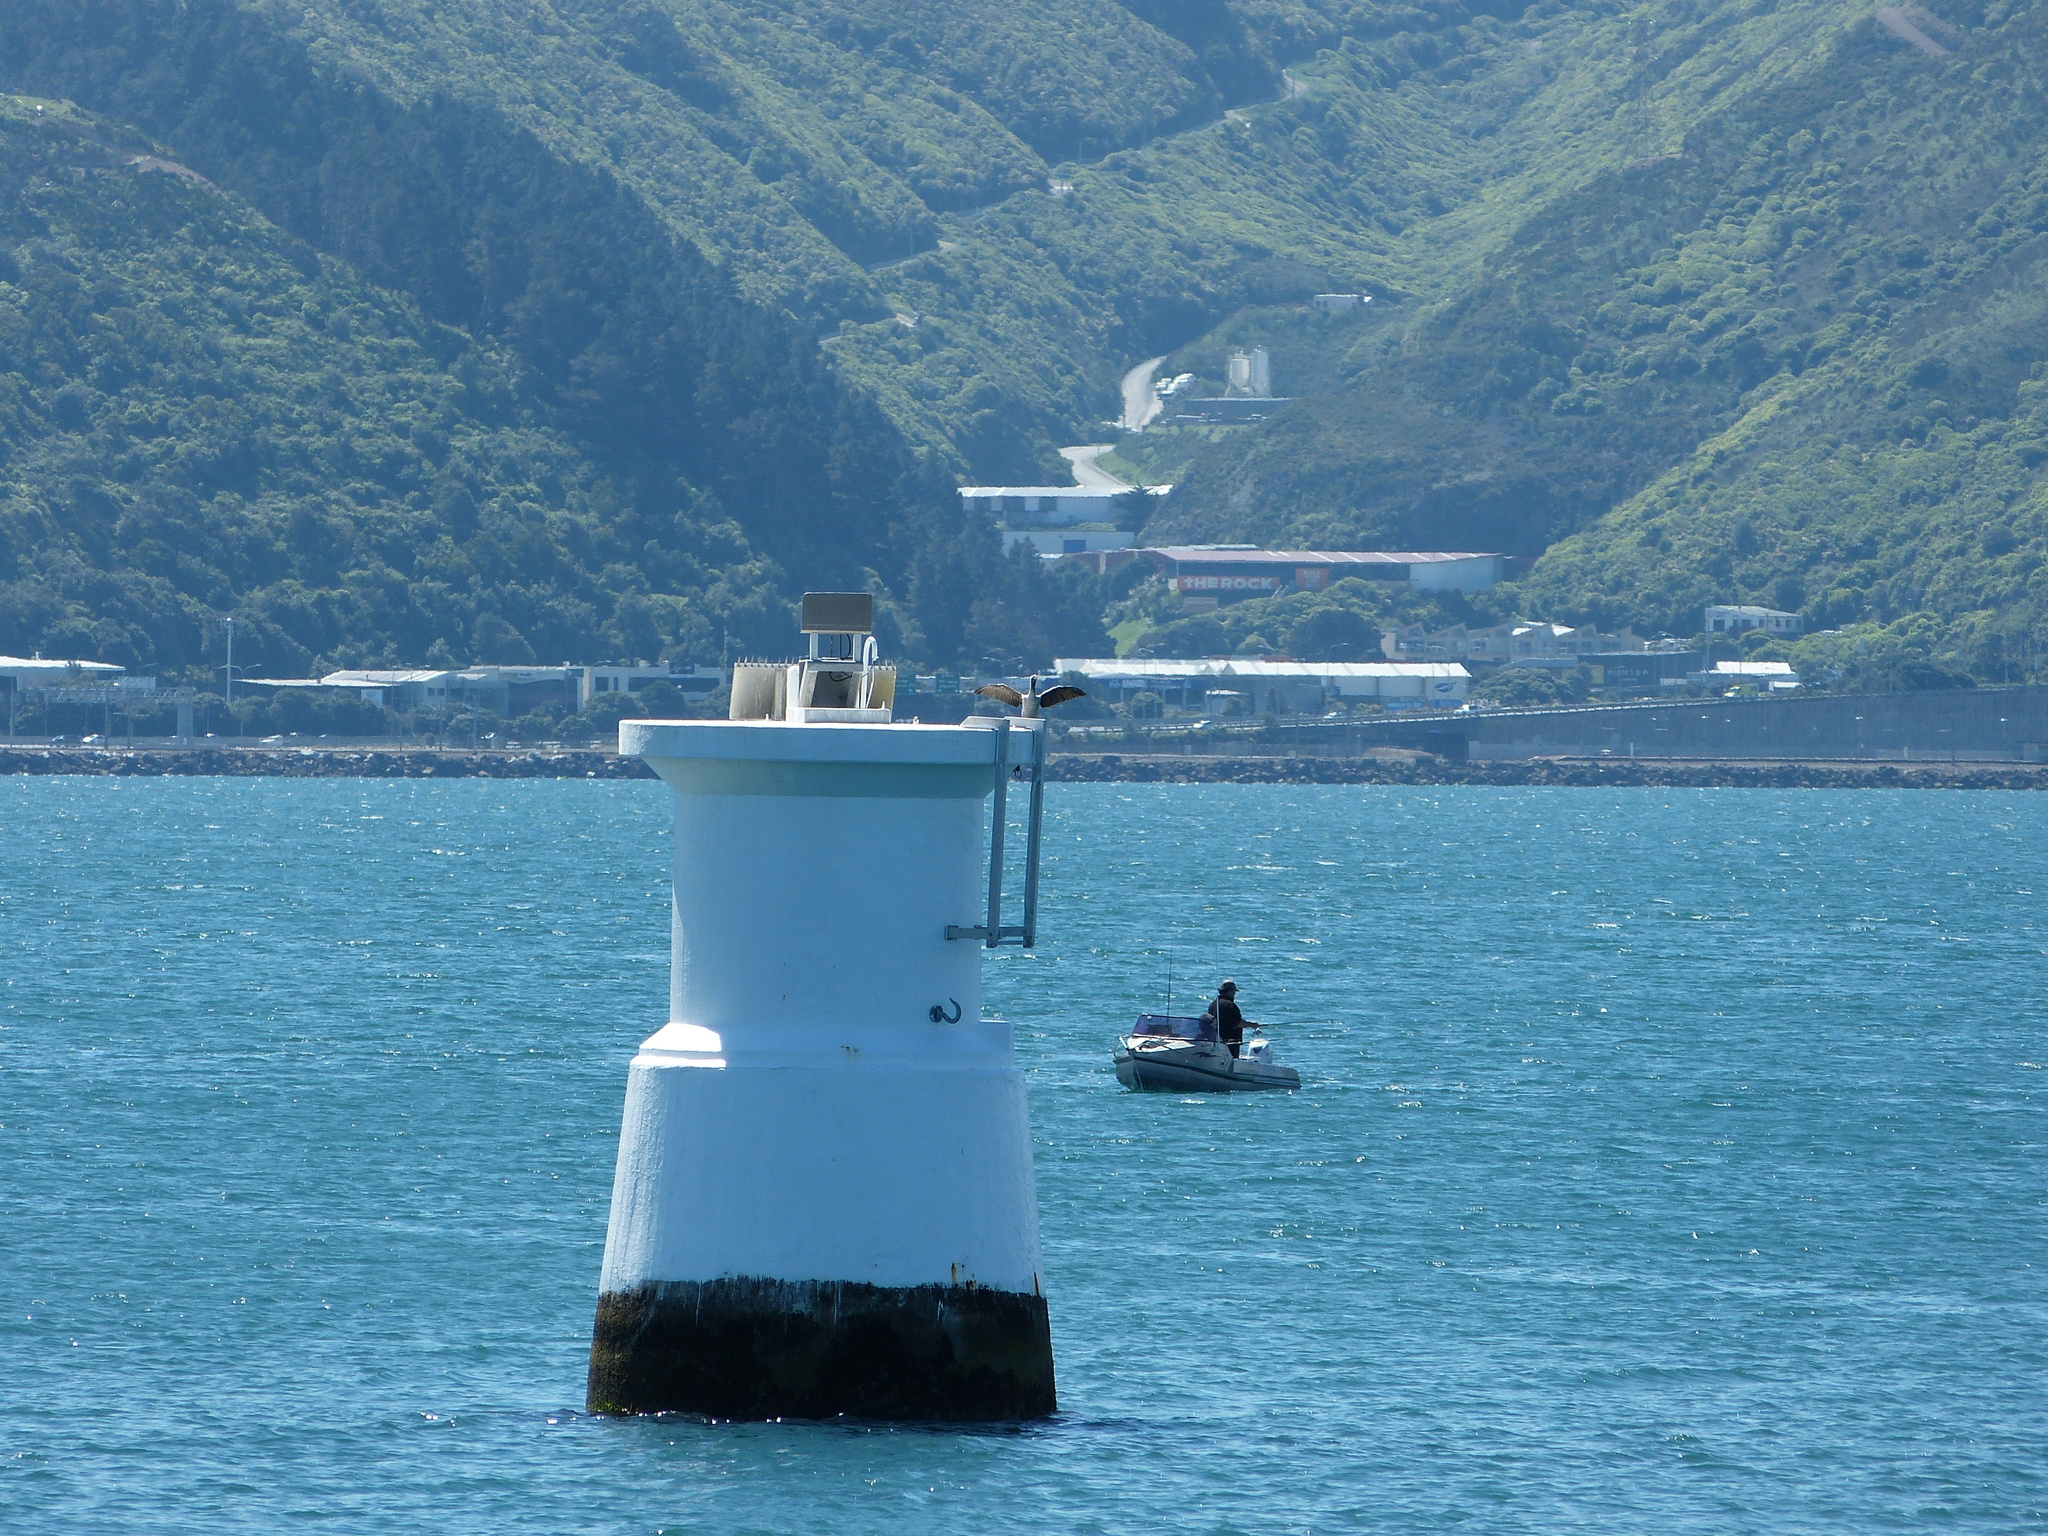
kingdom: Animalia
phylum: Chordata
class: Aves
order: Suliformes
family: Phalacrocoracidae
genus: Phalacrocorax
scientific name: Phalacrocorax punctatus
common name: Spotted shag
